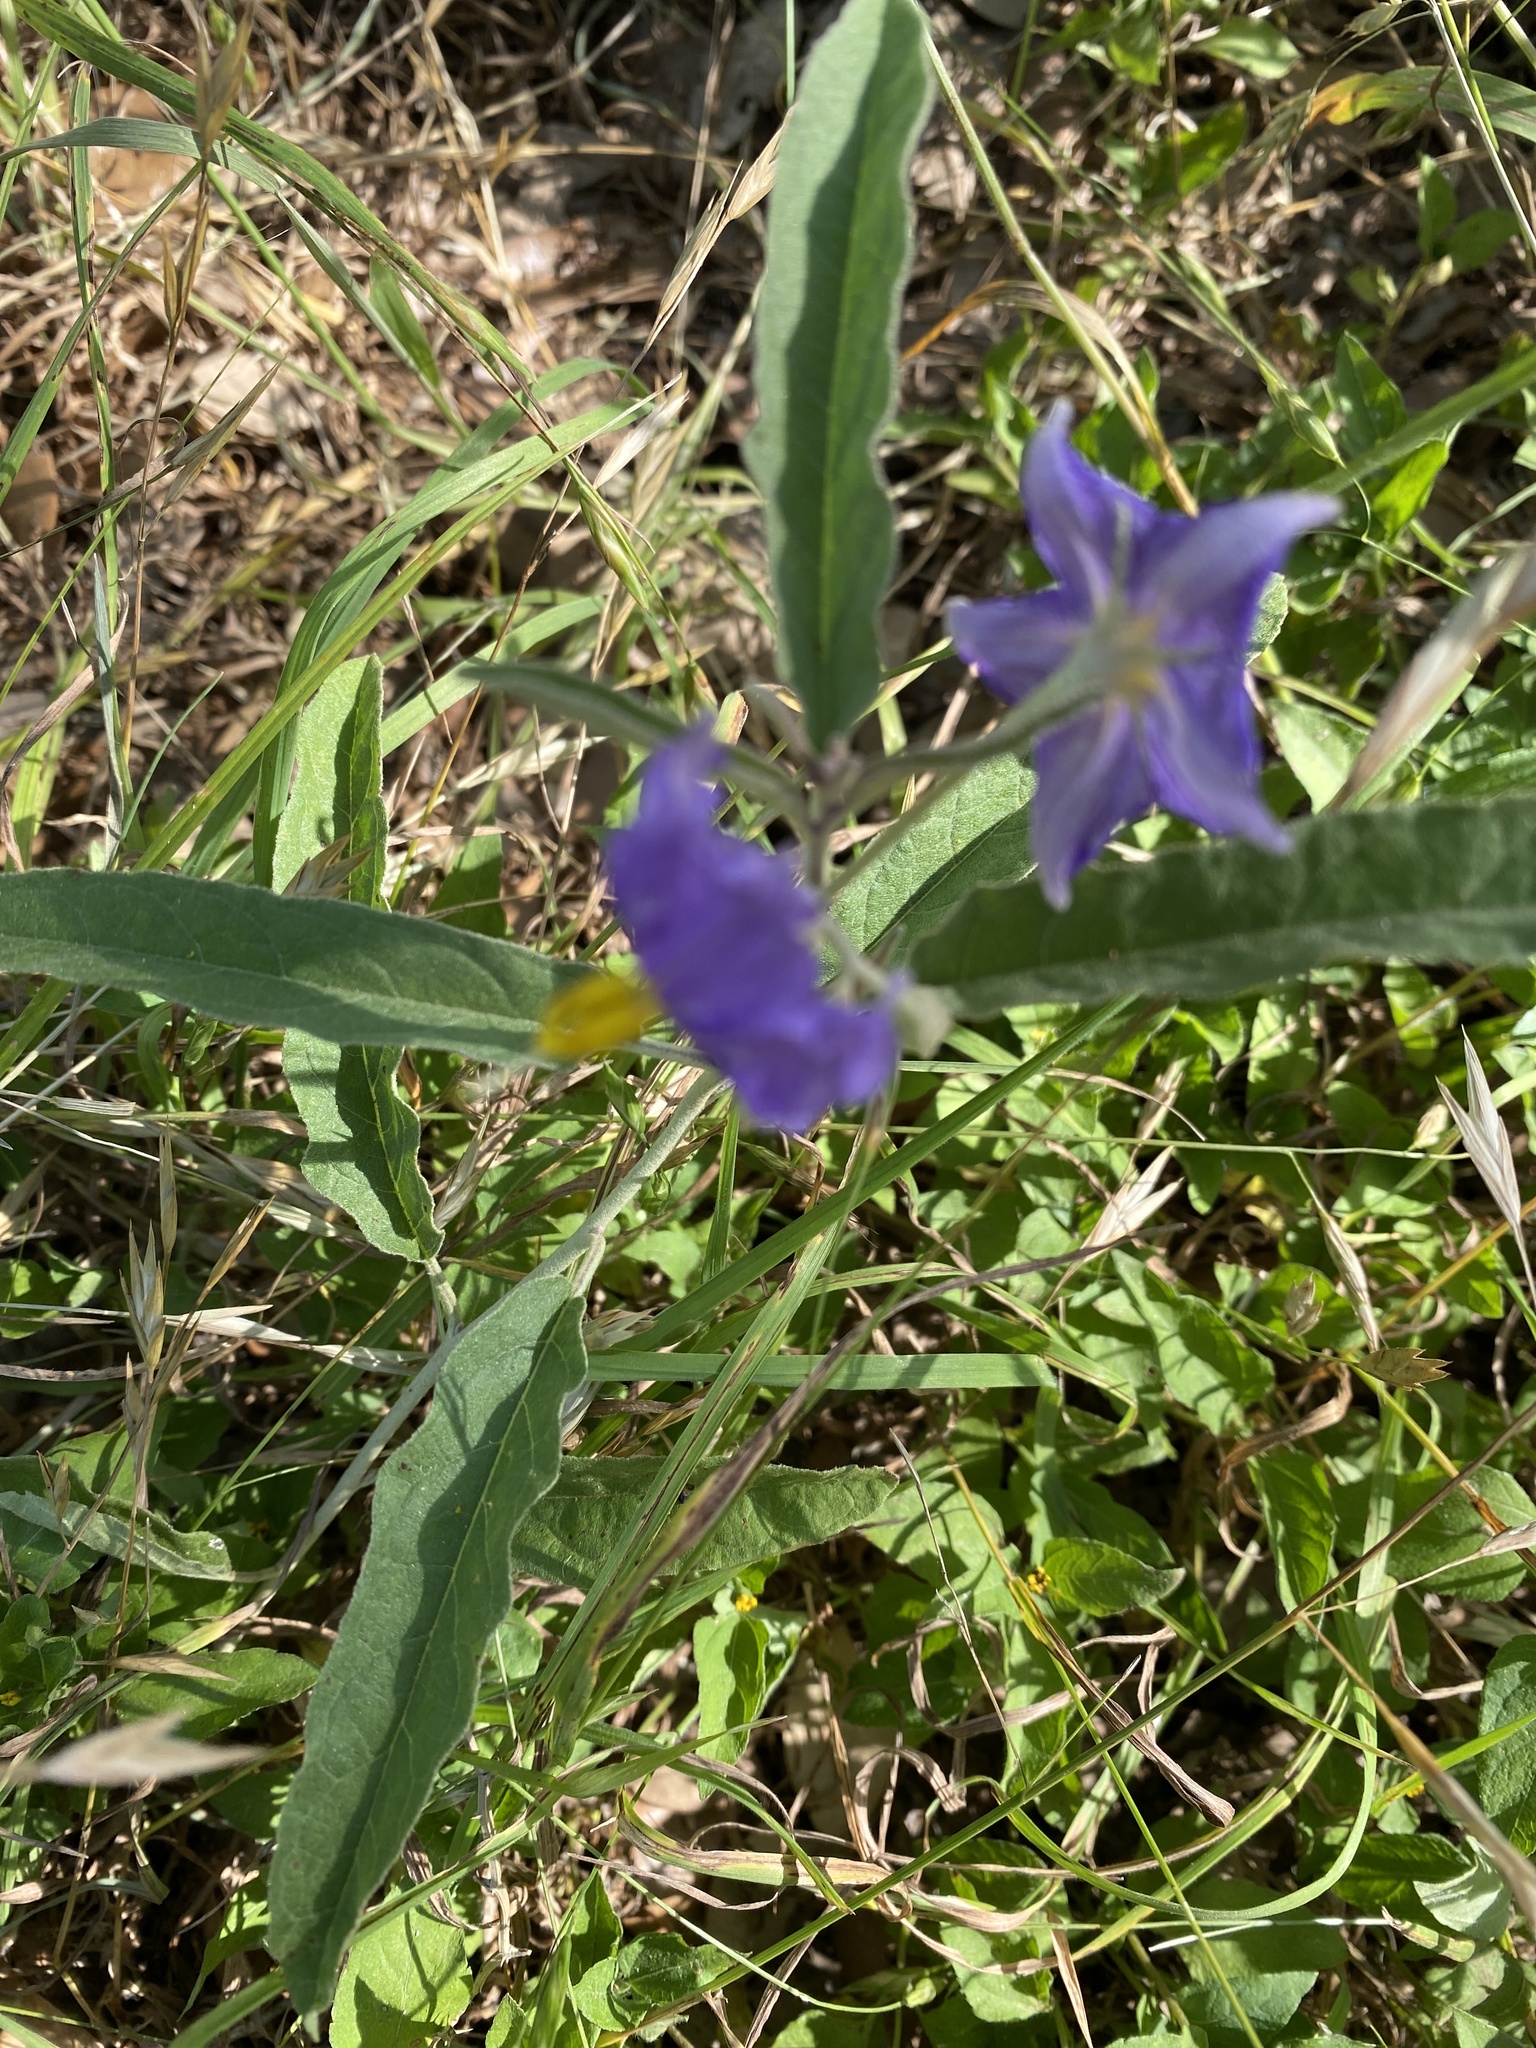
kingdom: Plantae
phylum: Tracheophyta
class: Magnoliopsida
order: Solanales
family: Solanaceae
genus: Solanum
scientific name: Solanum elaeagnifolium
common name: Silverleaf nightshade
